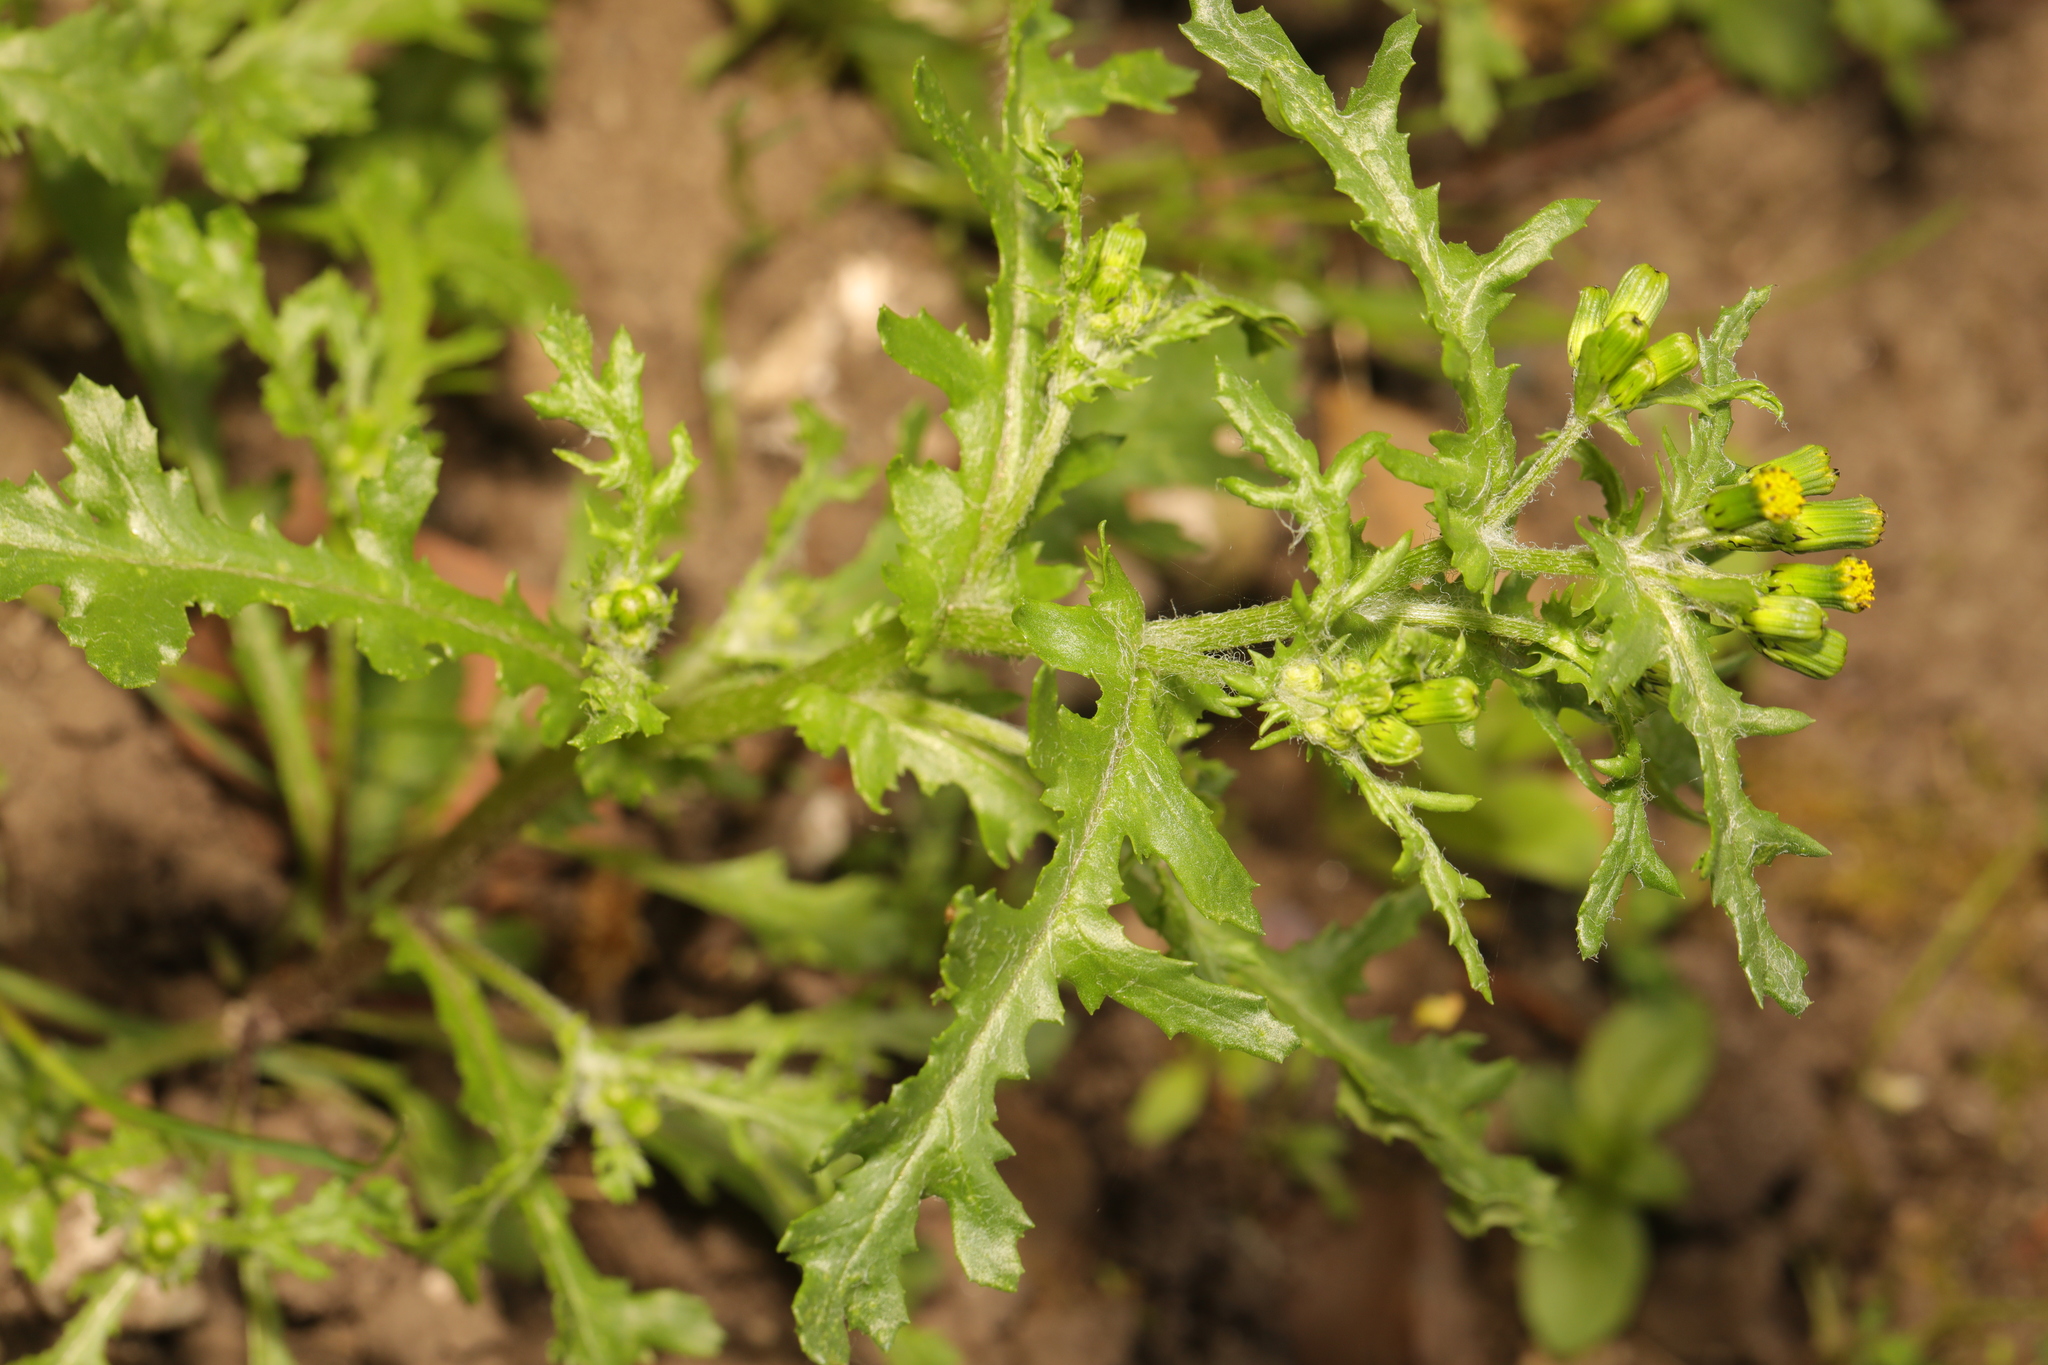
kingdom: Plantae
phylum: Tracheophyta
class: Magnoliopsida
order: Asterales
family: Asteraceae
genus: Senecio
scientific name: Senecio vulgaris
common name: Old-man-in-the-spring
